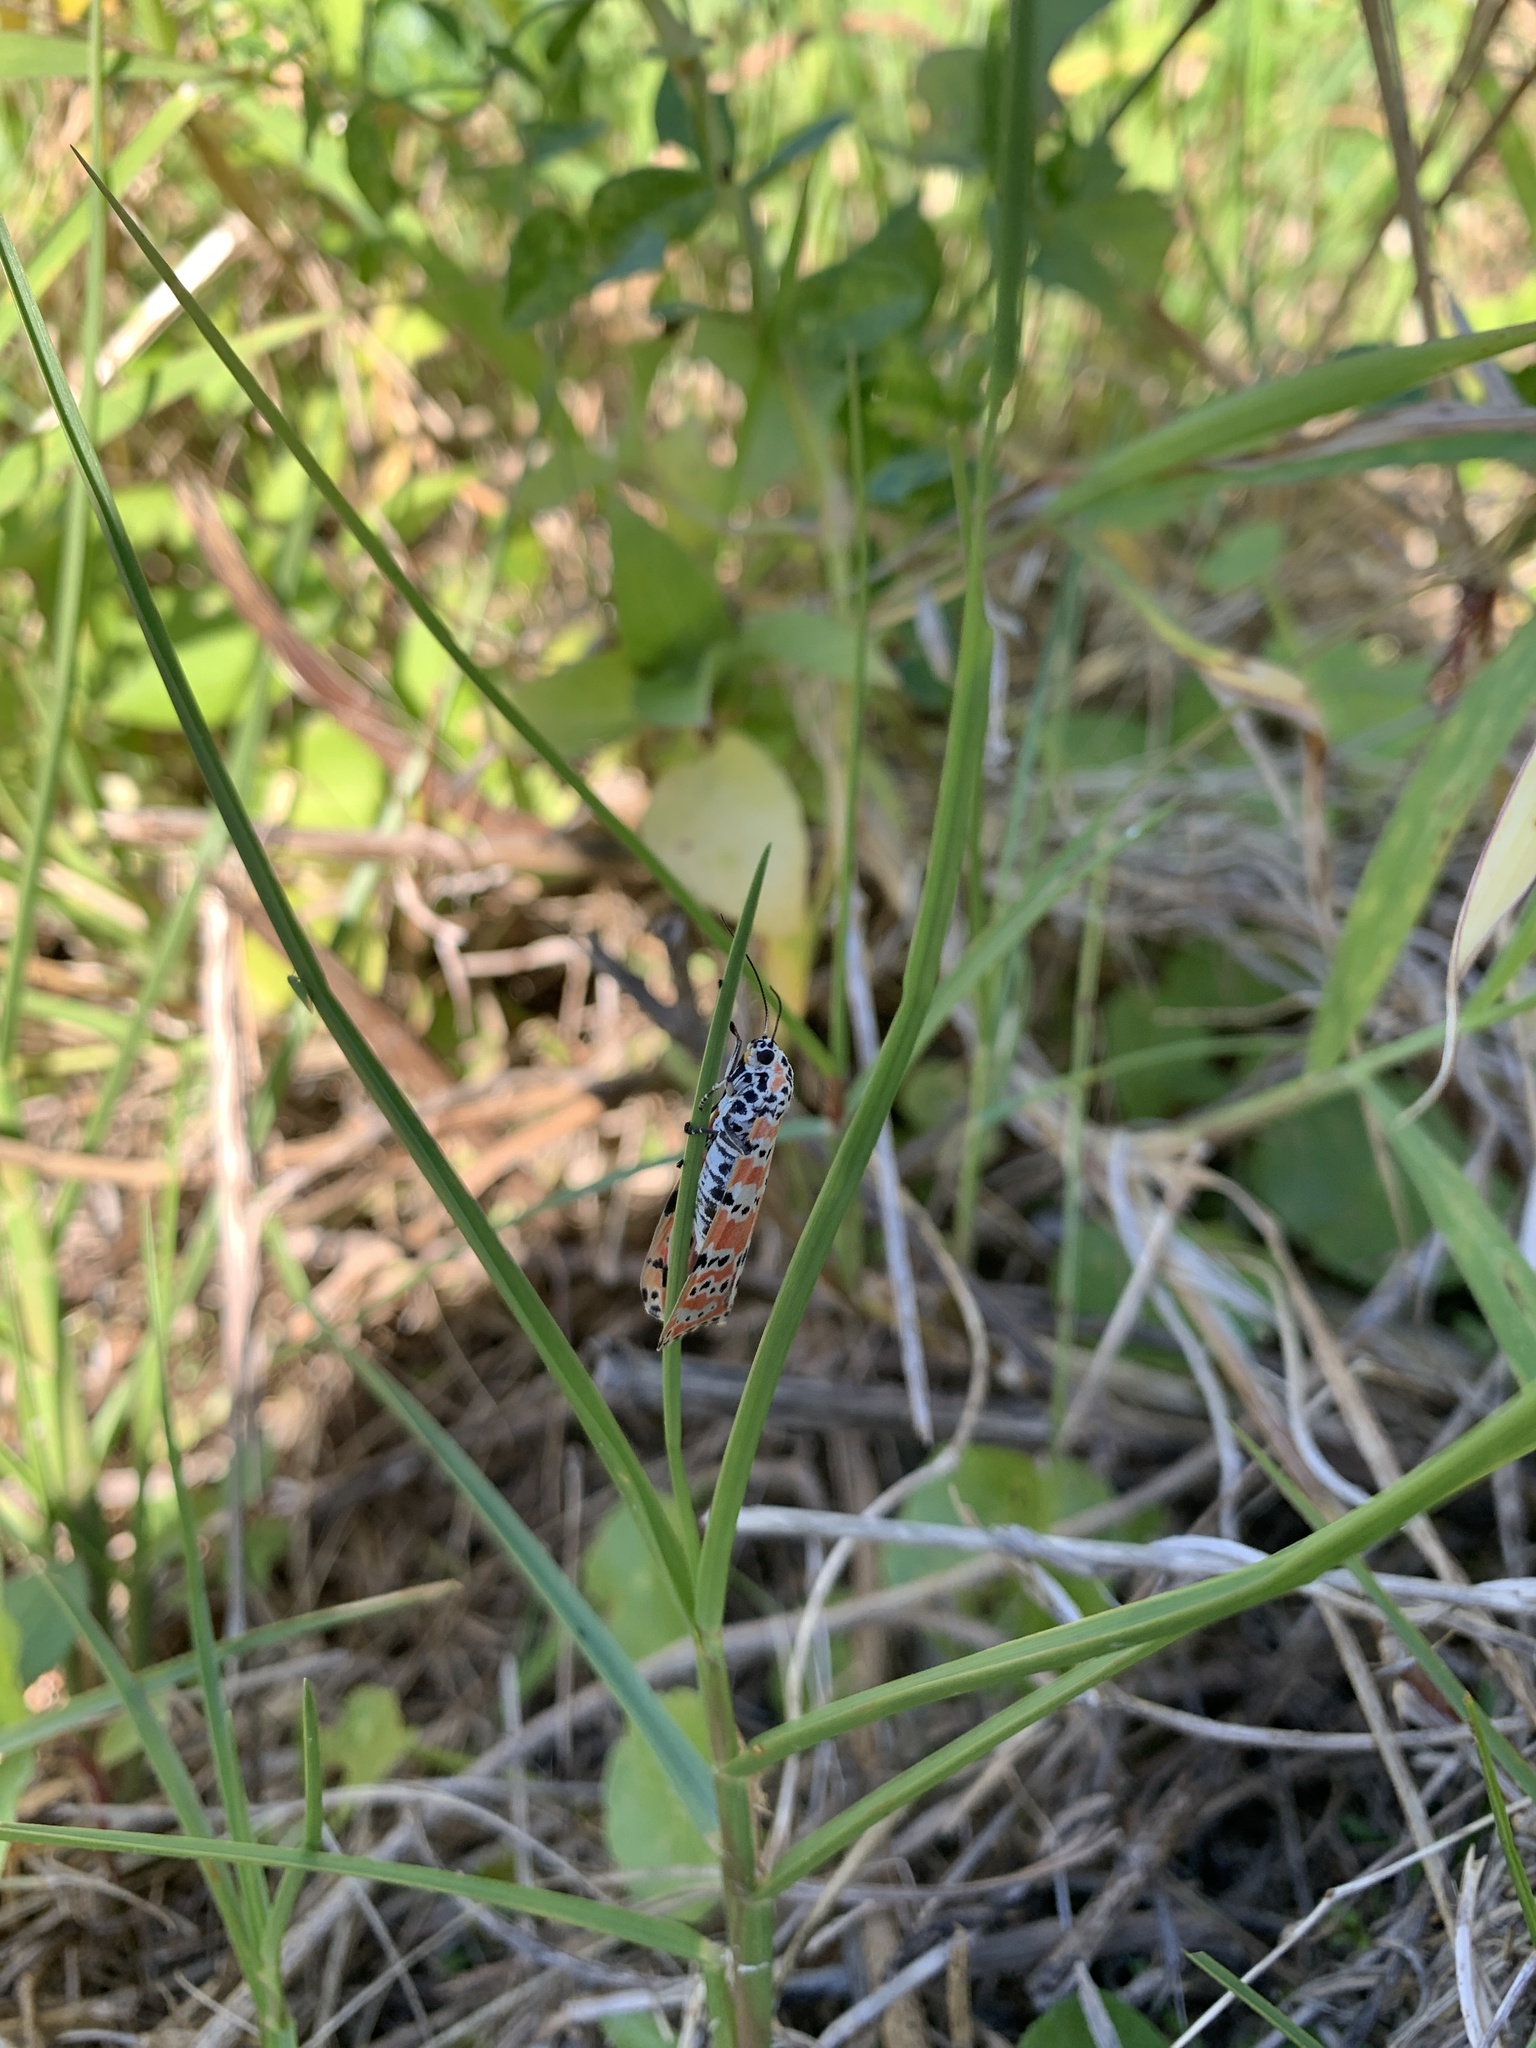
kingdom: Animalia
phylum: Arthropoda
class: Insecta
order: Lepidoptera
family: Erebidae
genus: Utetheisa
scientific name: Utetheisa ornatrix
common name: Beautiful utetheisa
